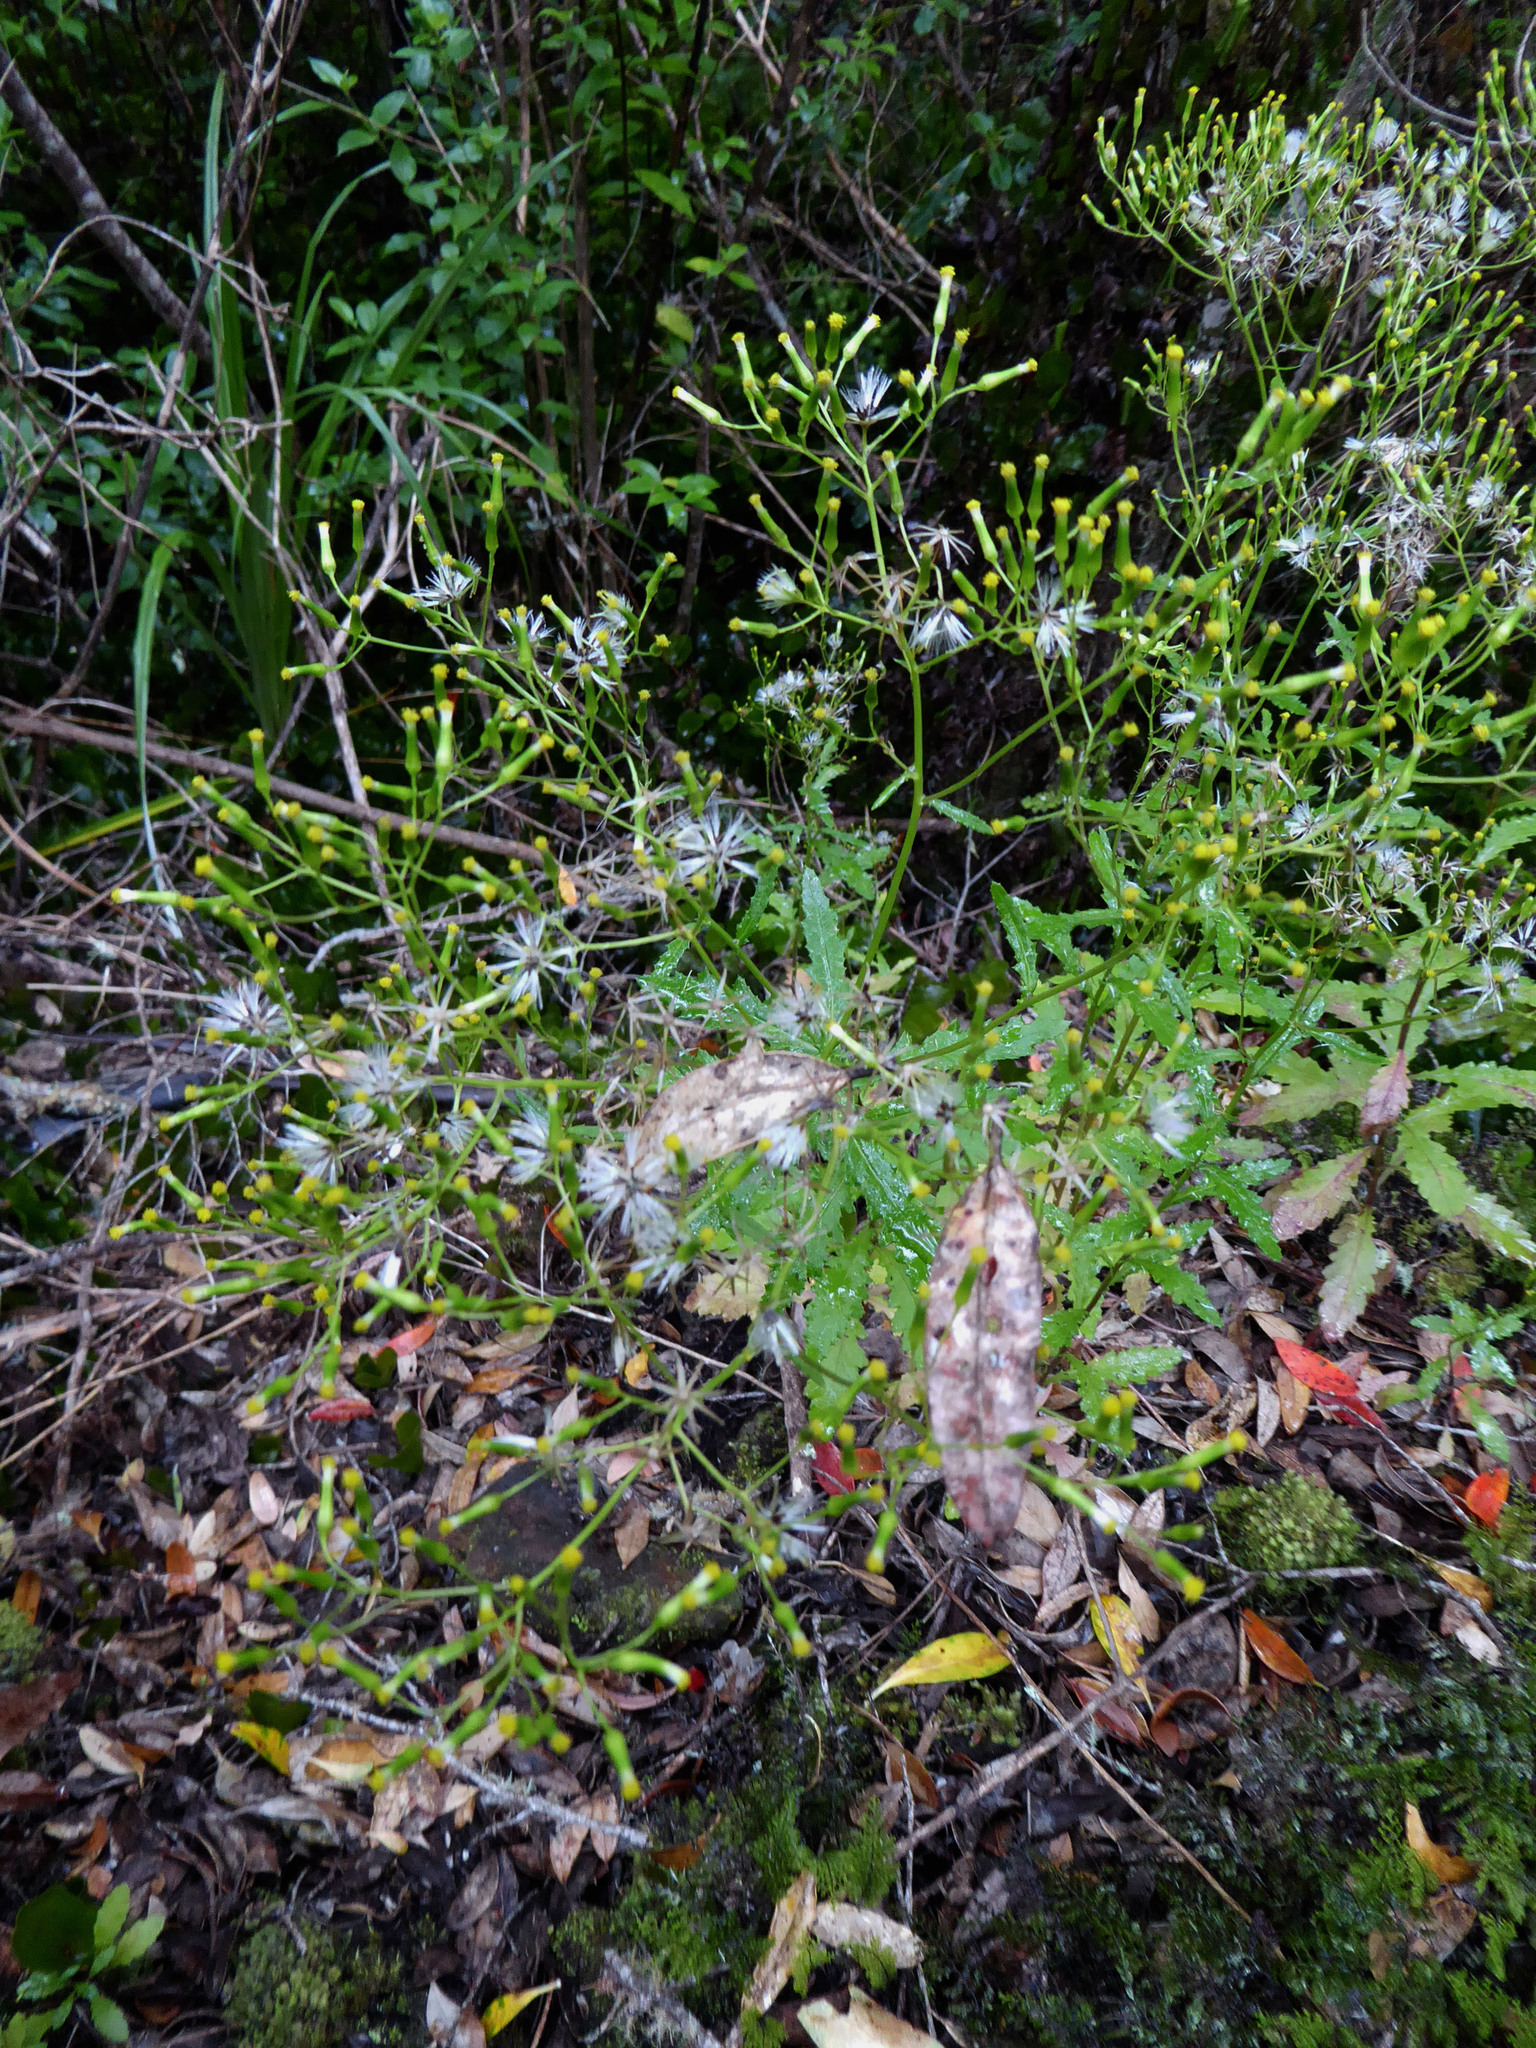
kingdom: Plantae
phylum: Tracheophyta
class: Magnoliopsida
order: Asterales
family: Asteraceae
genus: Senecio
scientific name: Senecio biserratus
